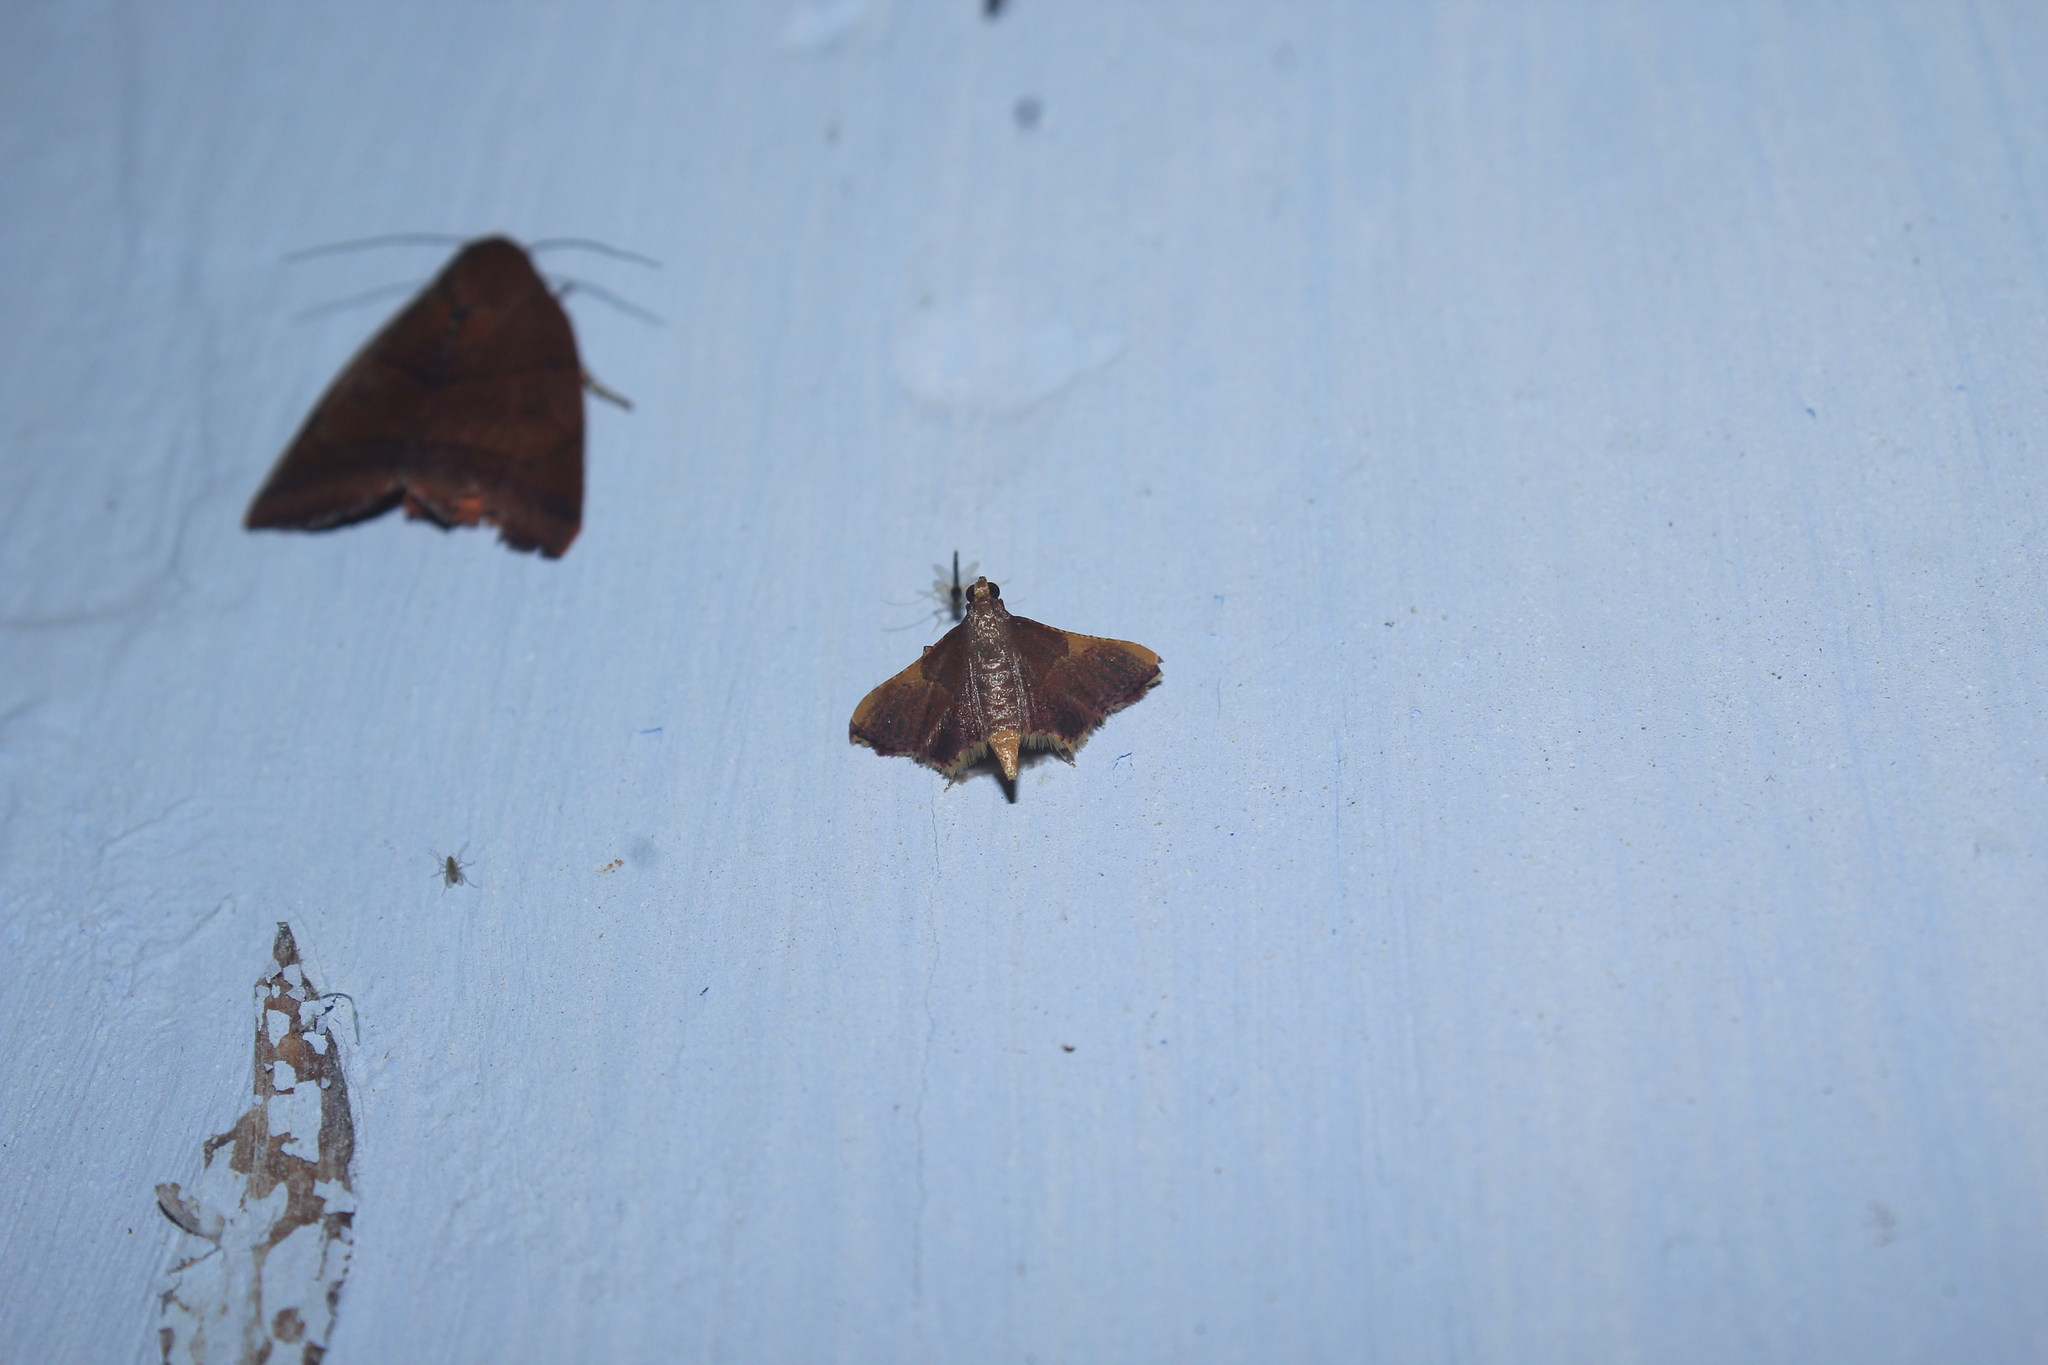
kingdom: Animalia
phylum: Arthropoda
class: Insecta
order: Lepidoptera
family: Pyralidae
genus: Endotricha
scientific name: Endotricha mesenterialis
